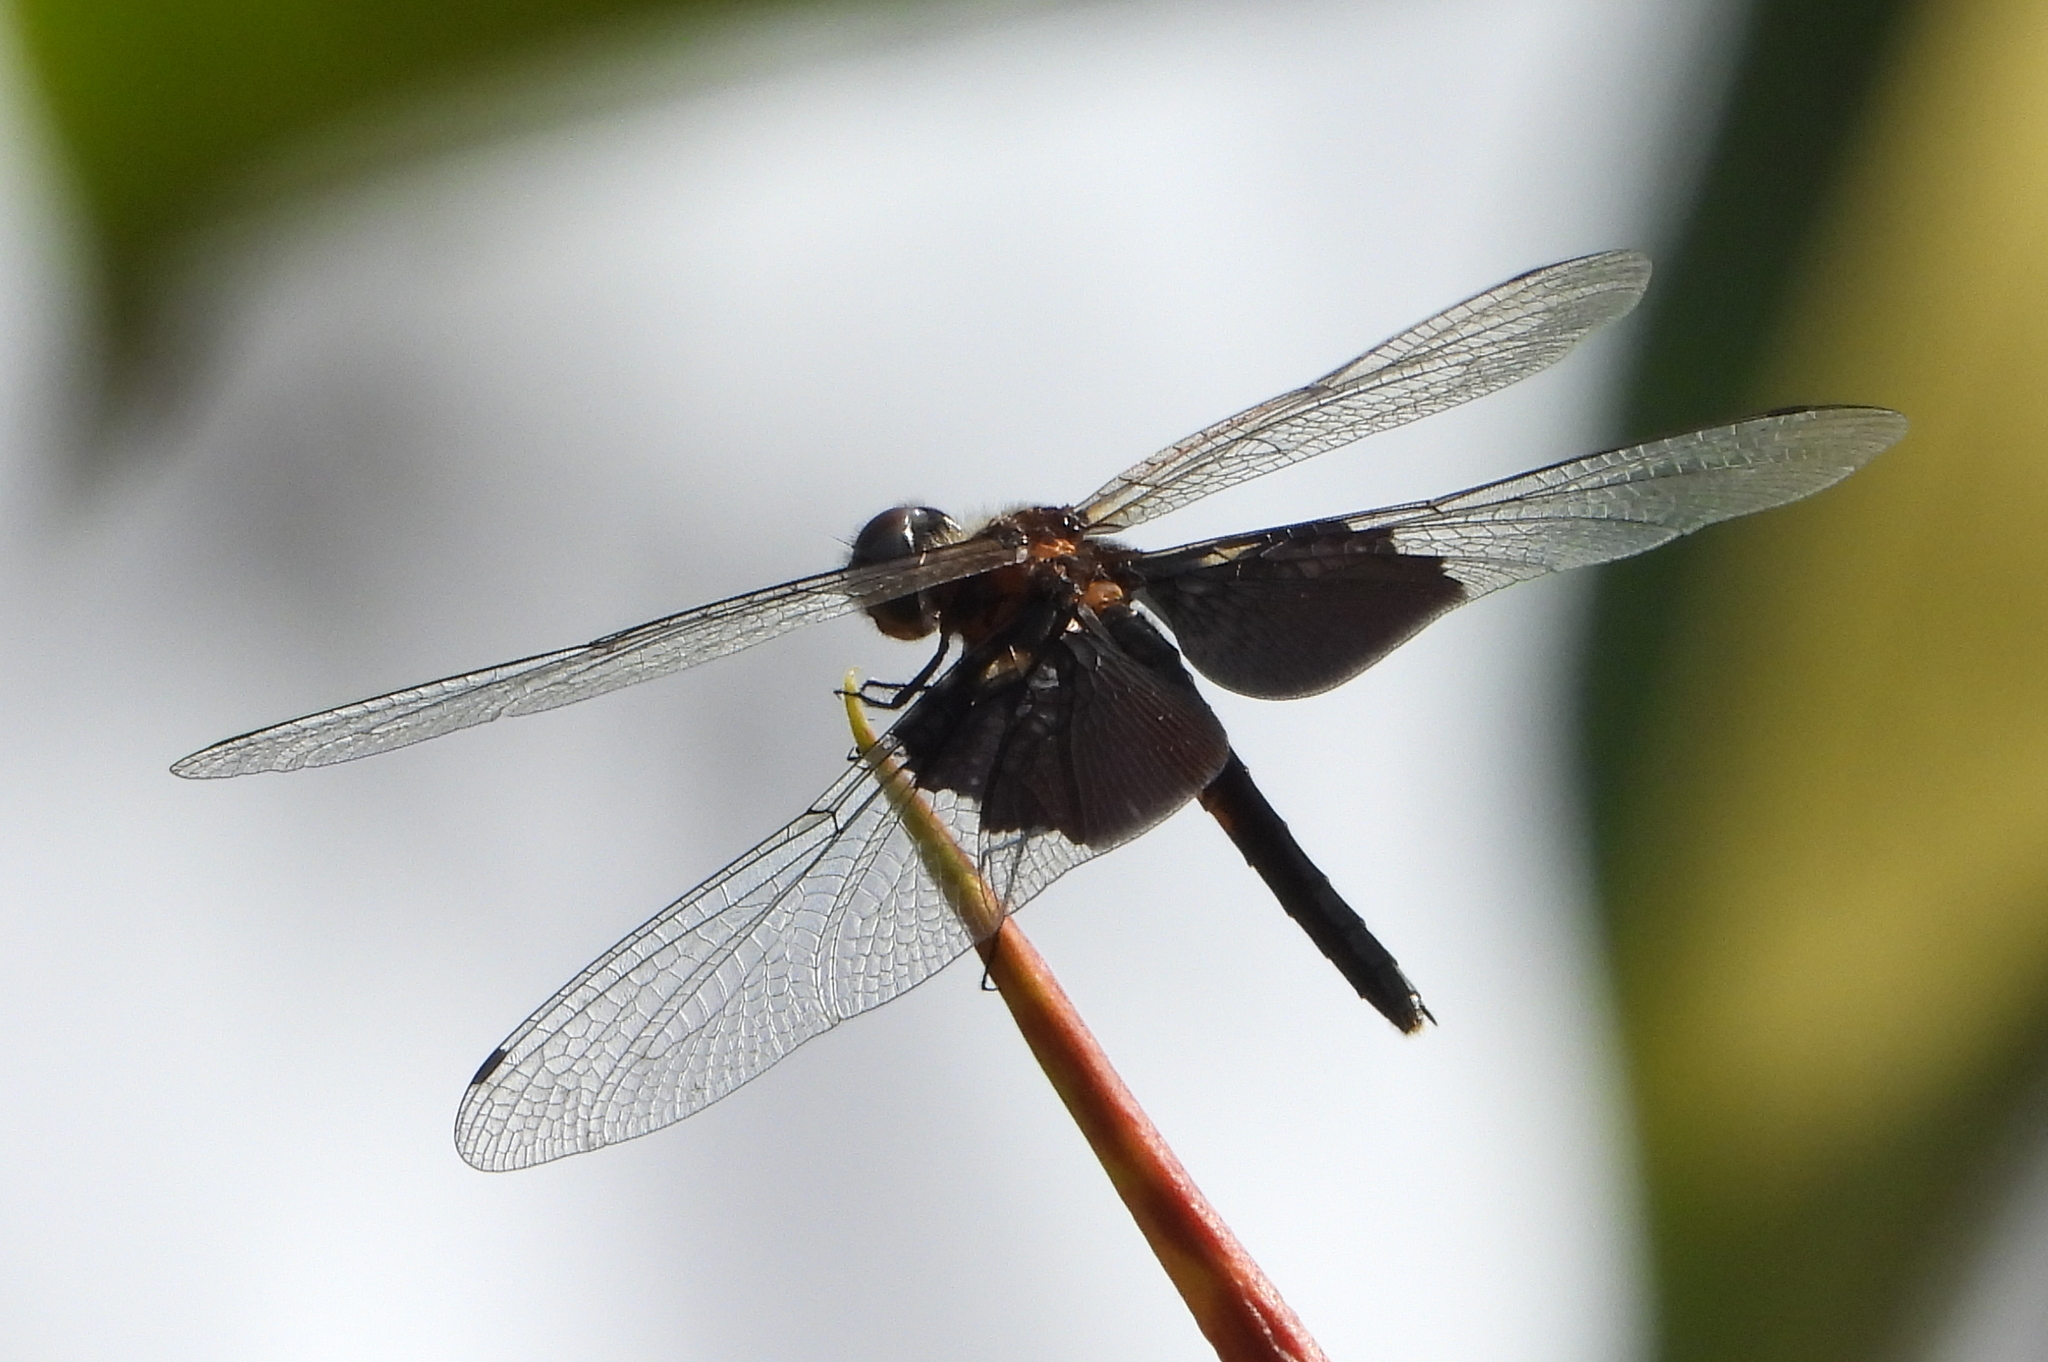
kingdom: Animalia
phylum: Arthropoda
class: Insecta
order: Odonata
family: Libellulidae
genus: Rhyothemis
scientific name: Rhyothemis semihyalina
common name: Phantom flutterer
